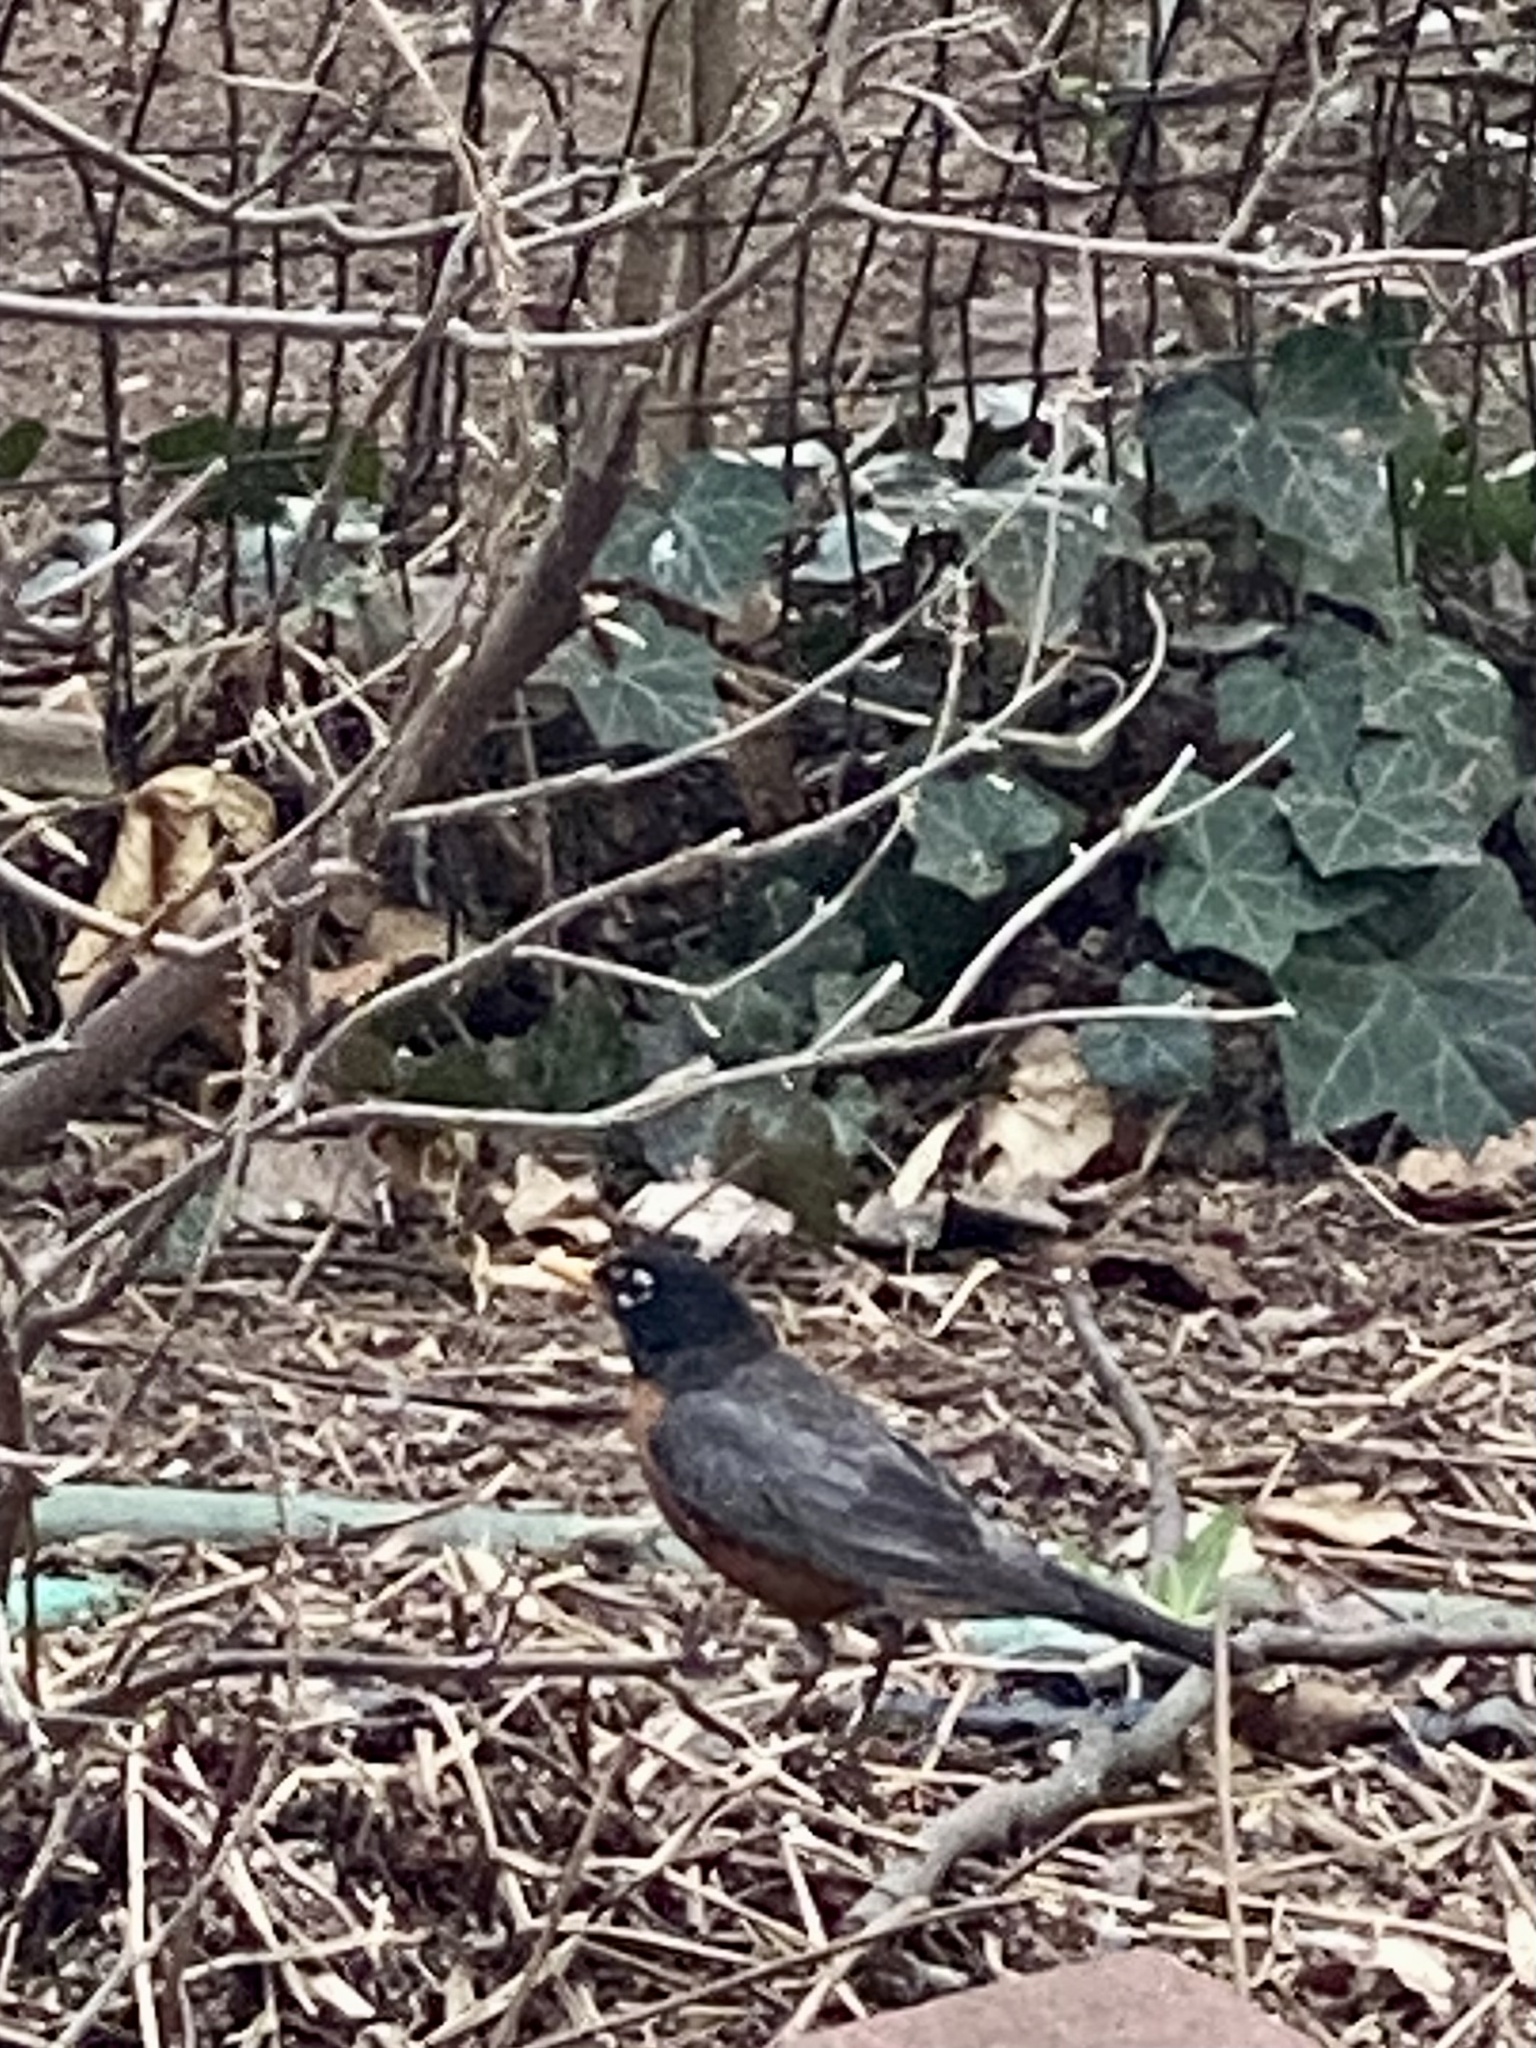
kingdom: Animalia
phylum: Chordata
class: Aves
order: Passeriformes
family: Turdidae
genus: Turdus
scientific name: Turdus migratorius
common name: American robin
